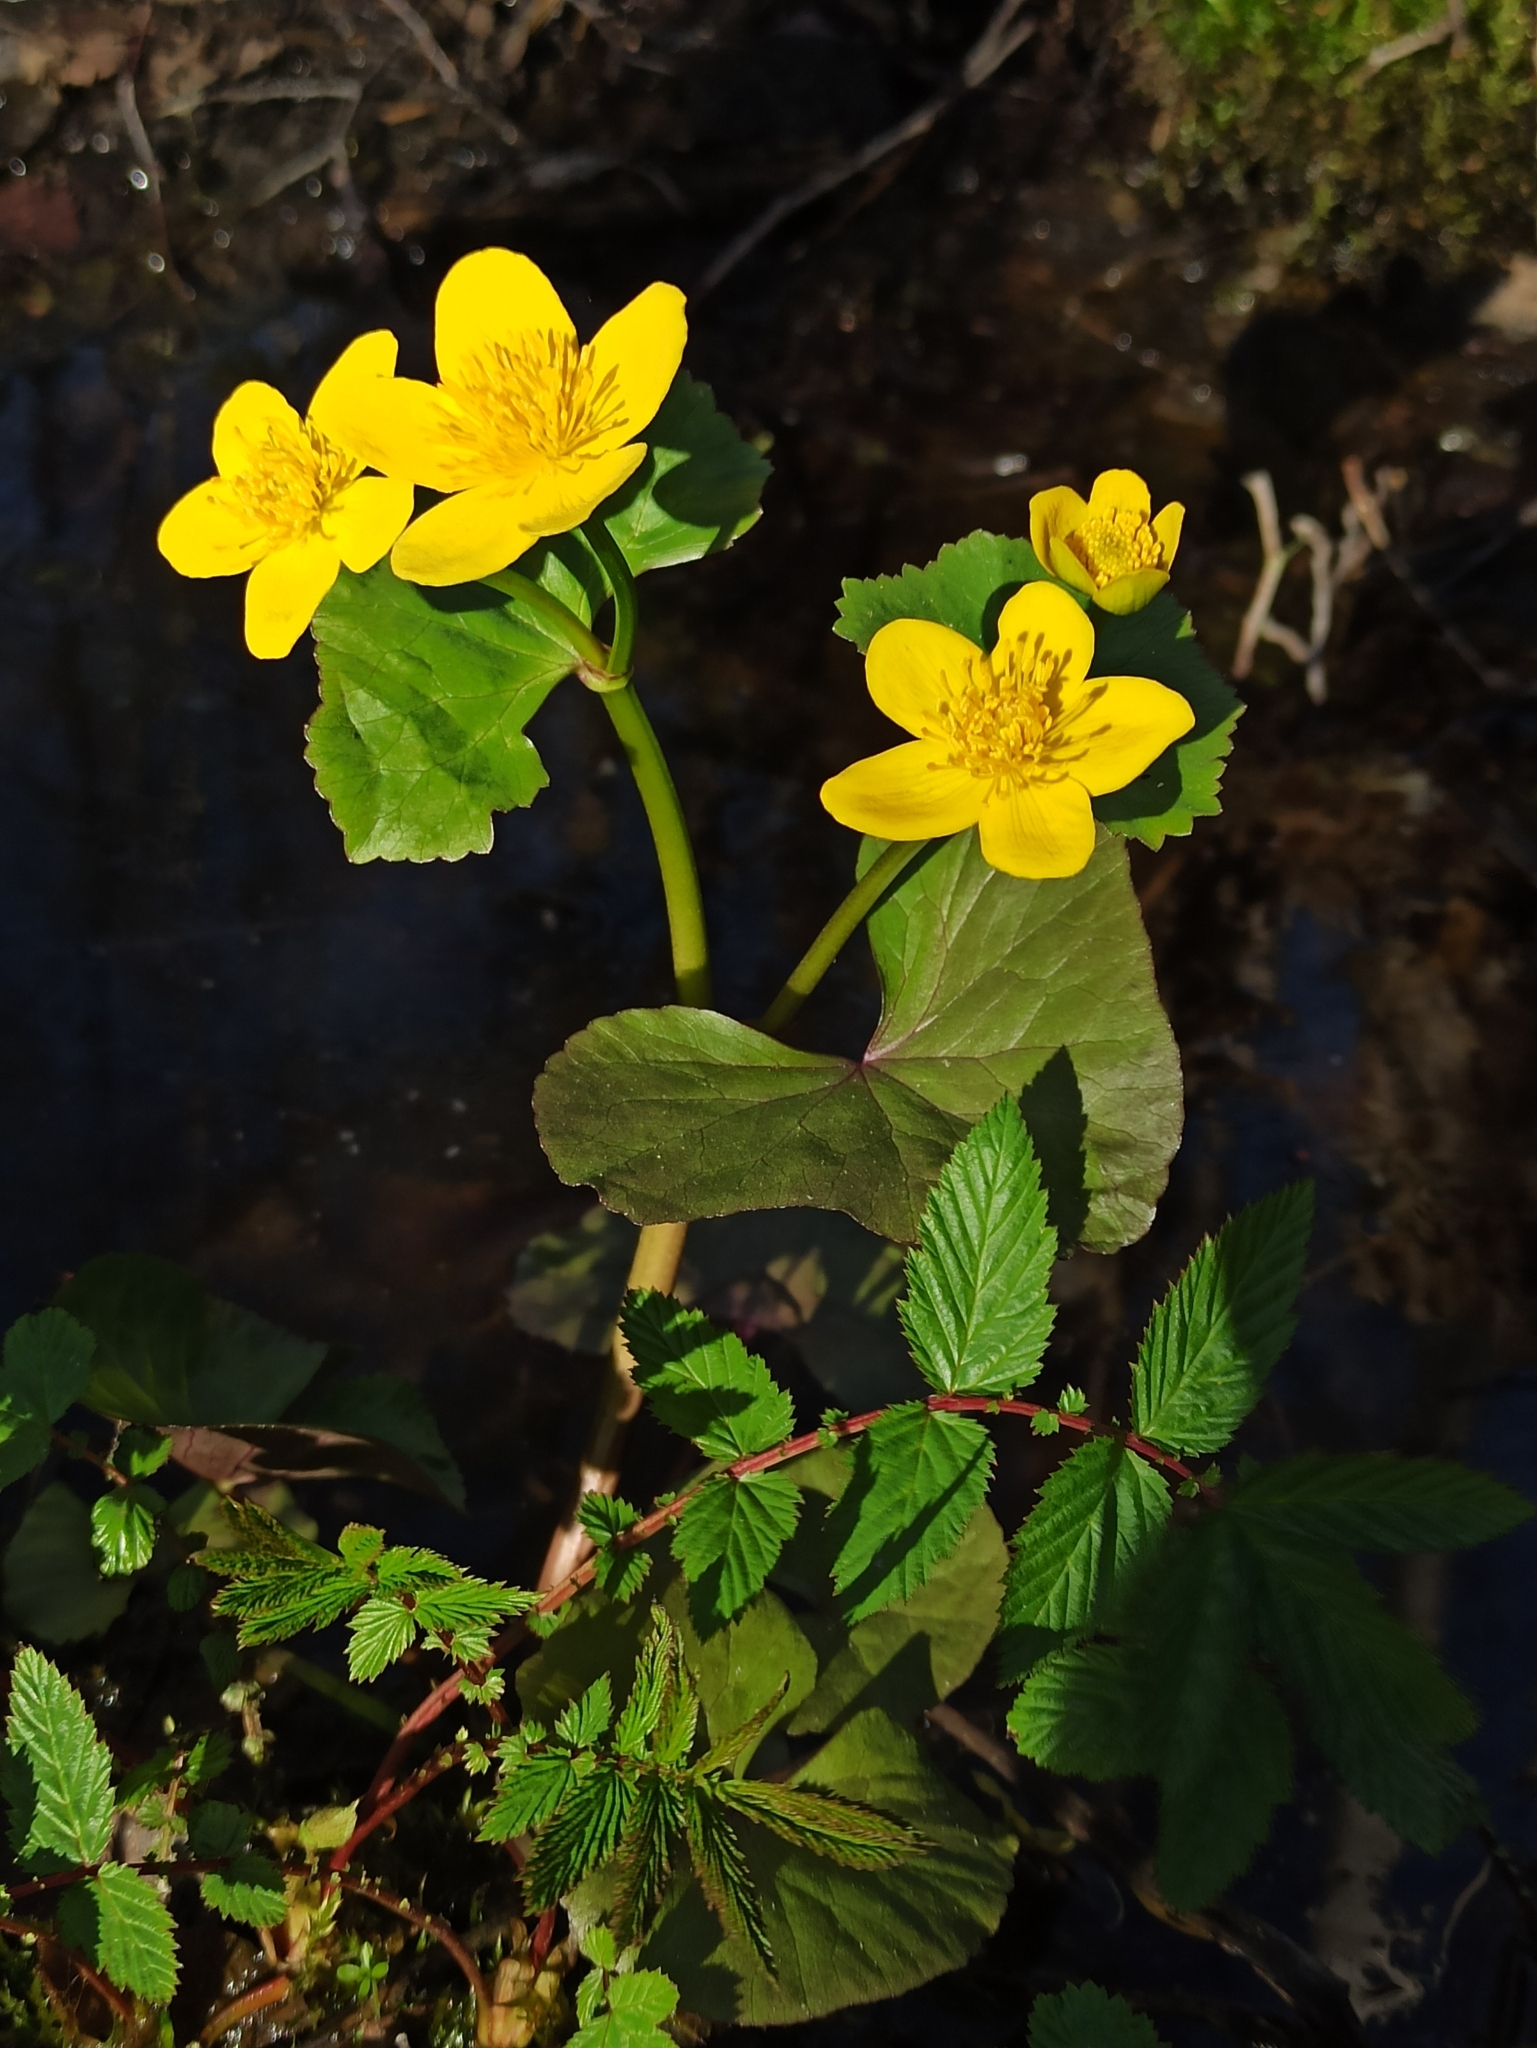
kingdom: Plantae
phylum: Tracheophyta
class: Magnoliopsida
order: Ranunculales
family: Ranunculaceae
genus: Caltha
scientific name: Caltha palustris
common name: Marsh marigold
